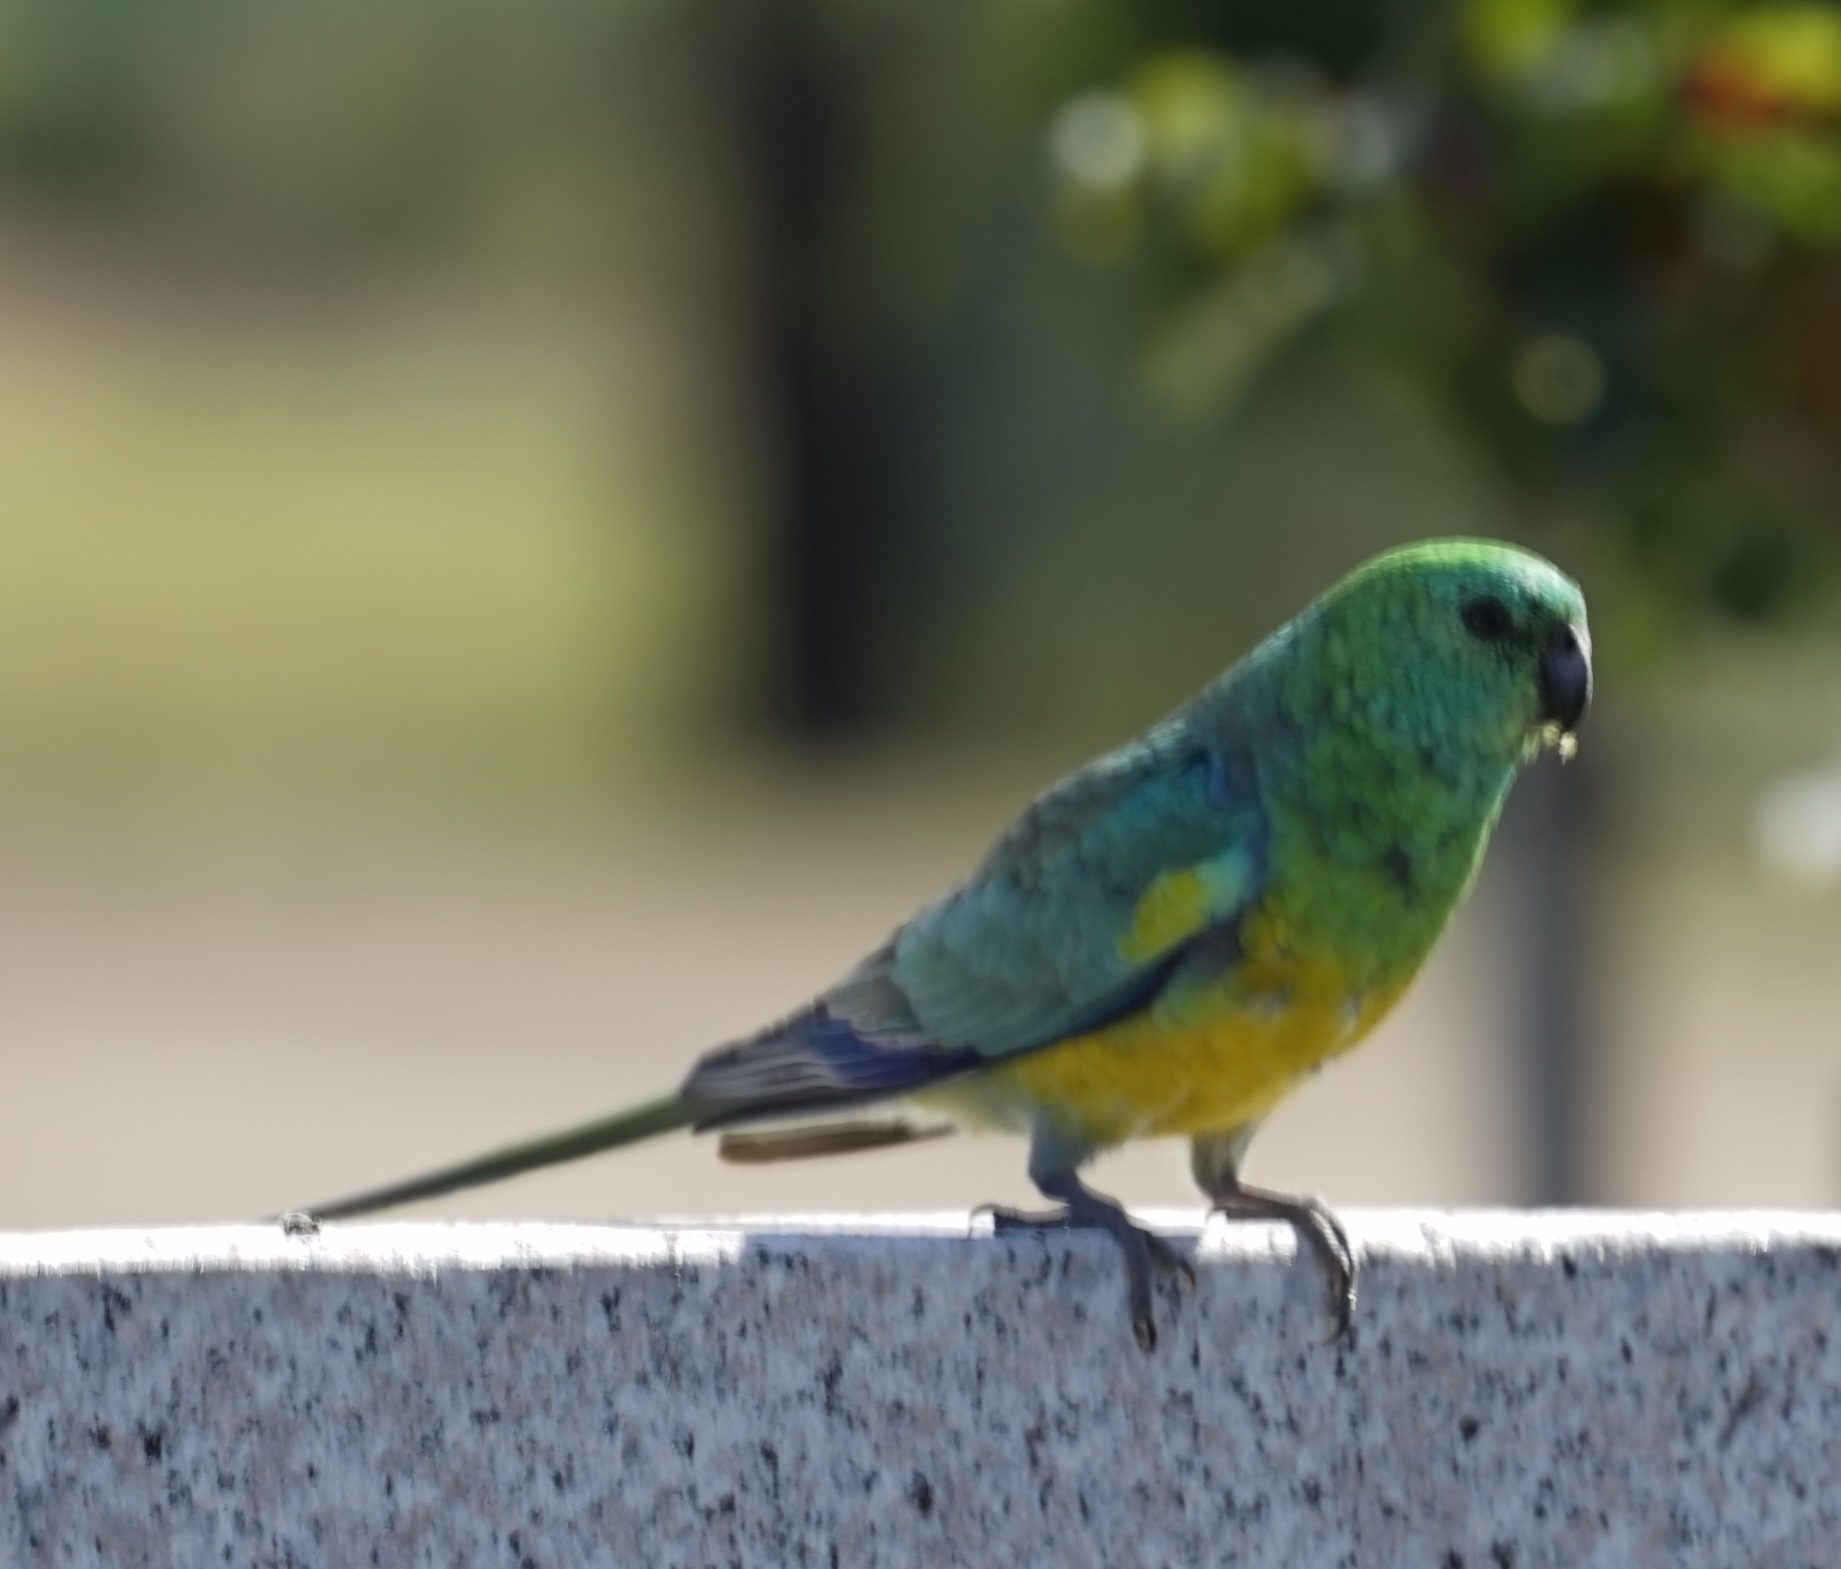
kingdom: Animalia
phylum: Chordata
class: Aves
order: Psittaciformes
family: Psittacidae
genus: Psephotus
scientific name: Psephotus haematonotus
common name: Red-rumped parrot
